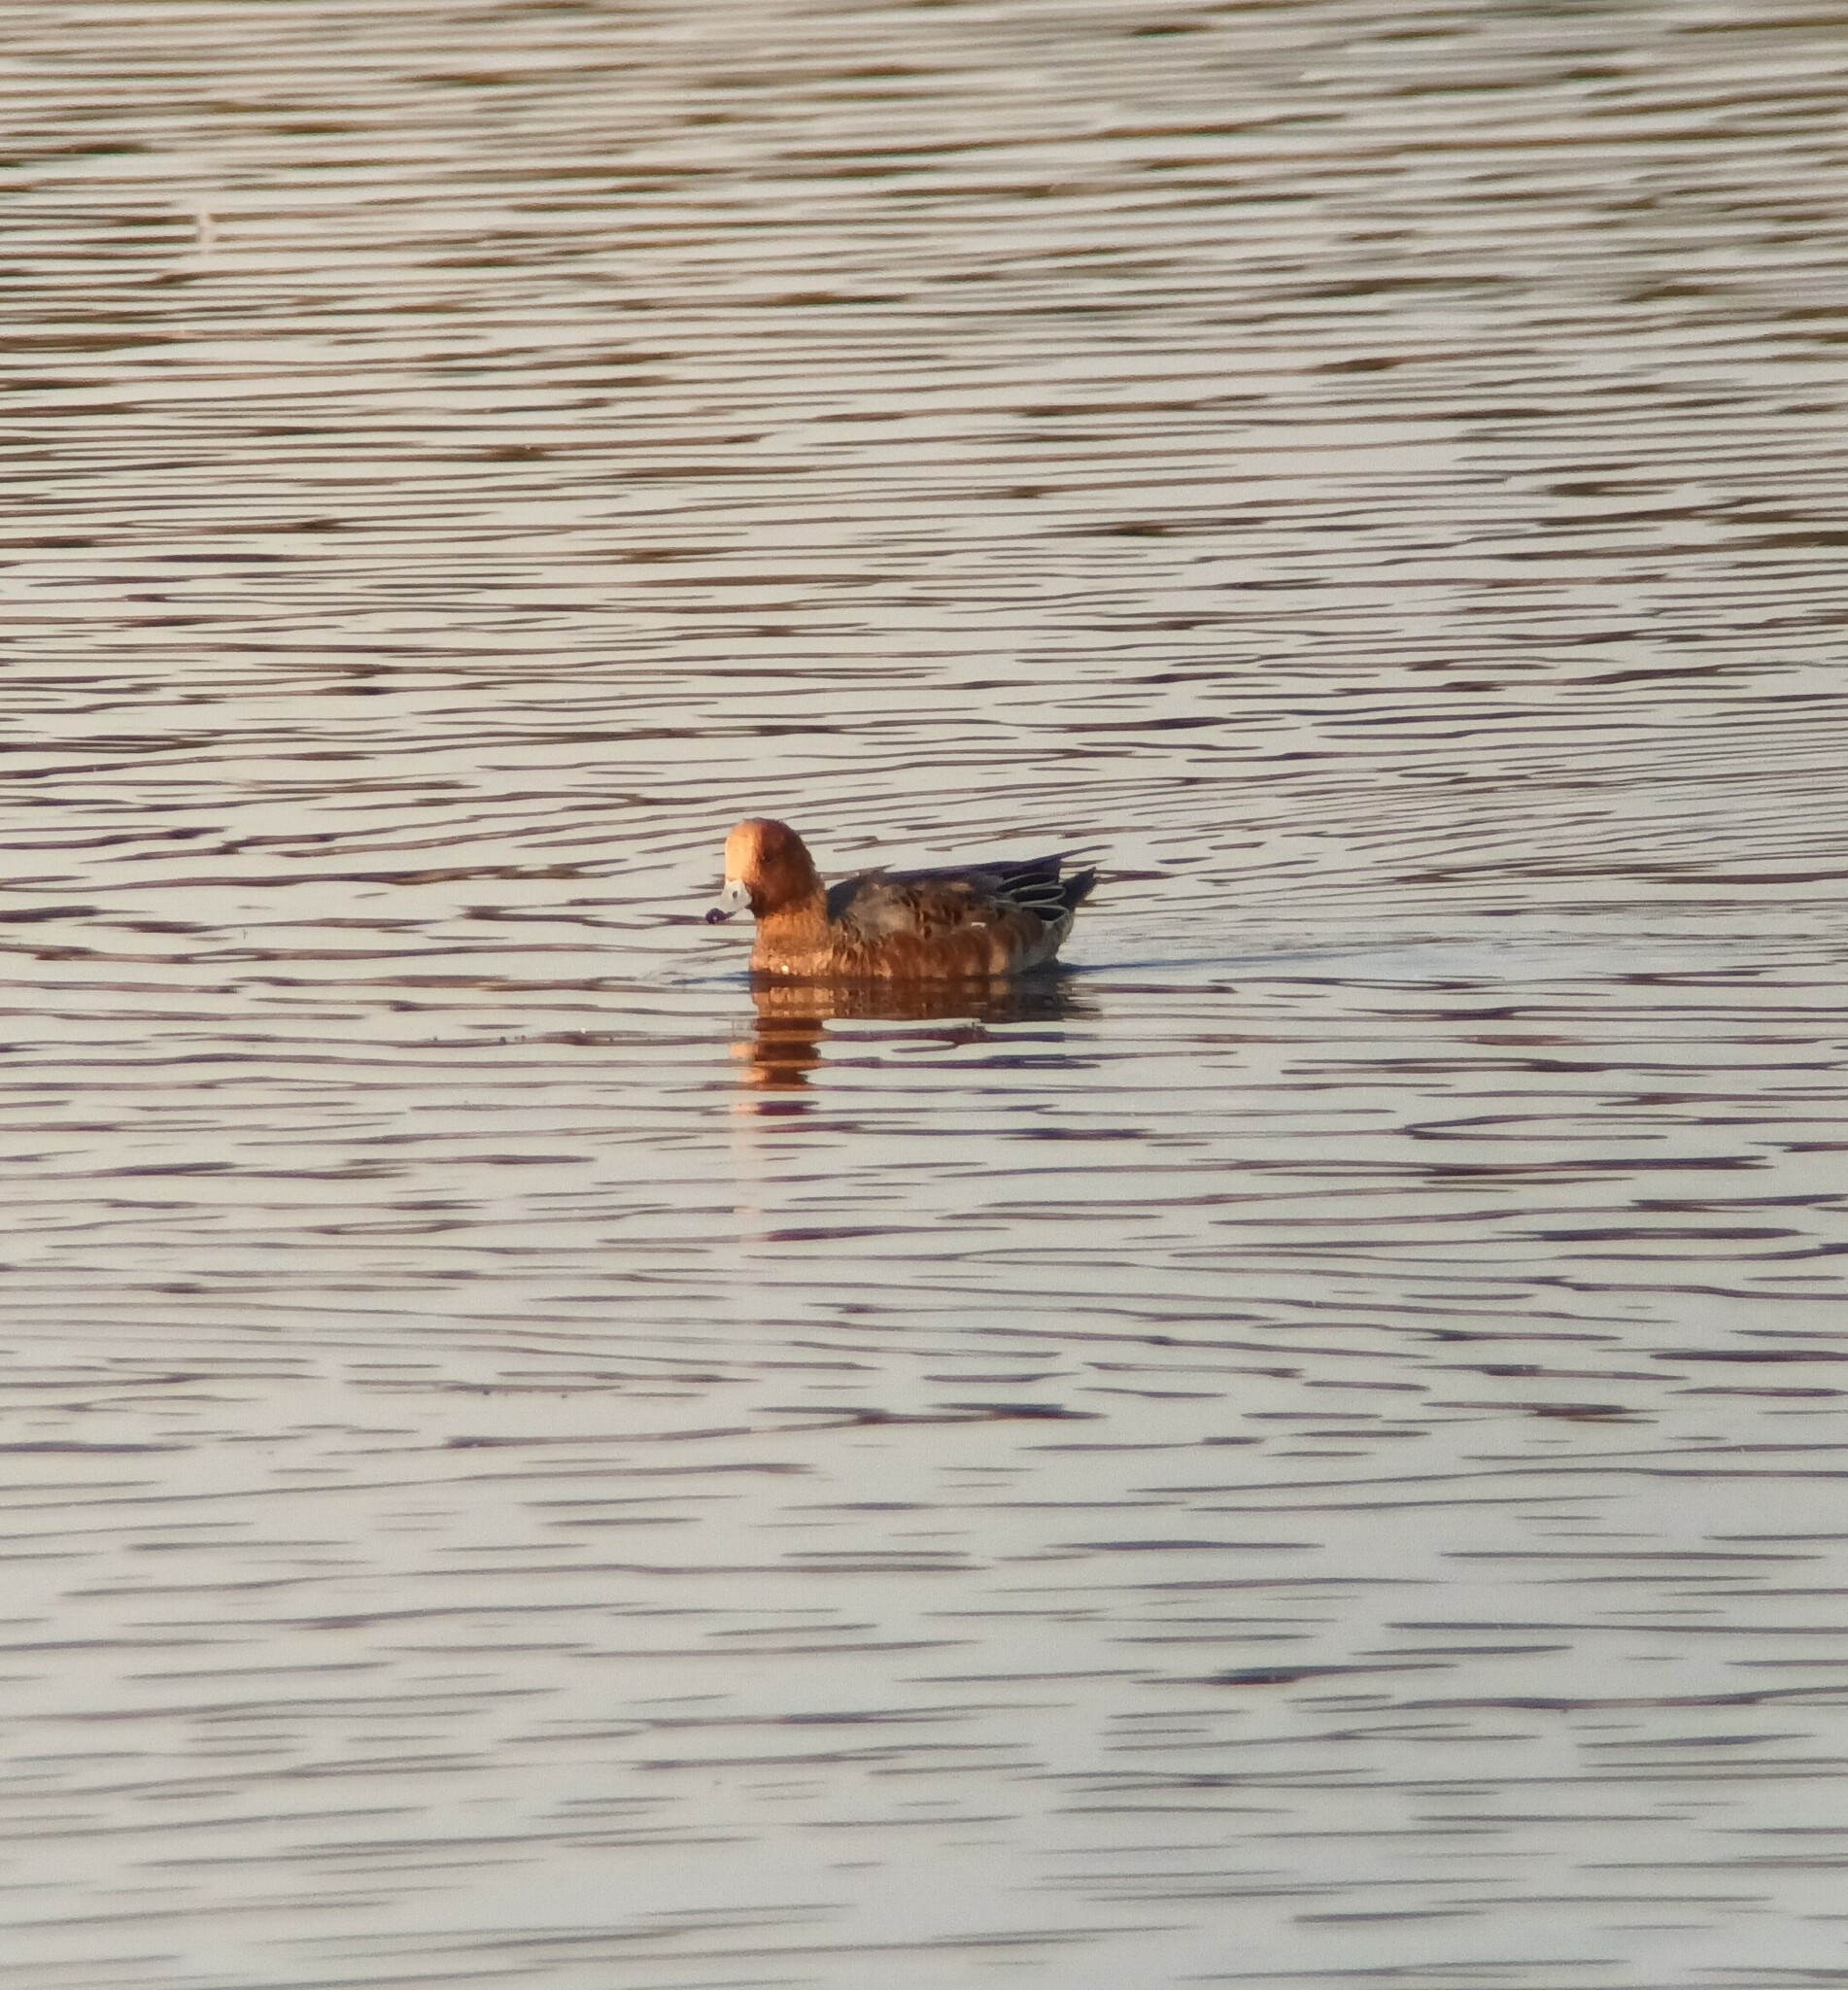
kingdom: Animalia
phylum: Chordata
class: Aves
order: Anseriformes
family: Anatidae
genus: Mareca
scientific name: Mareca penelope
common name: Eurasian wigeon
